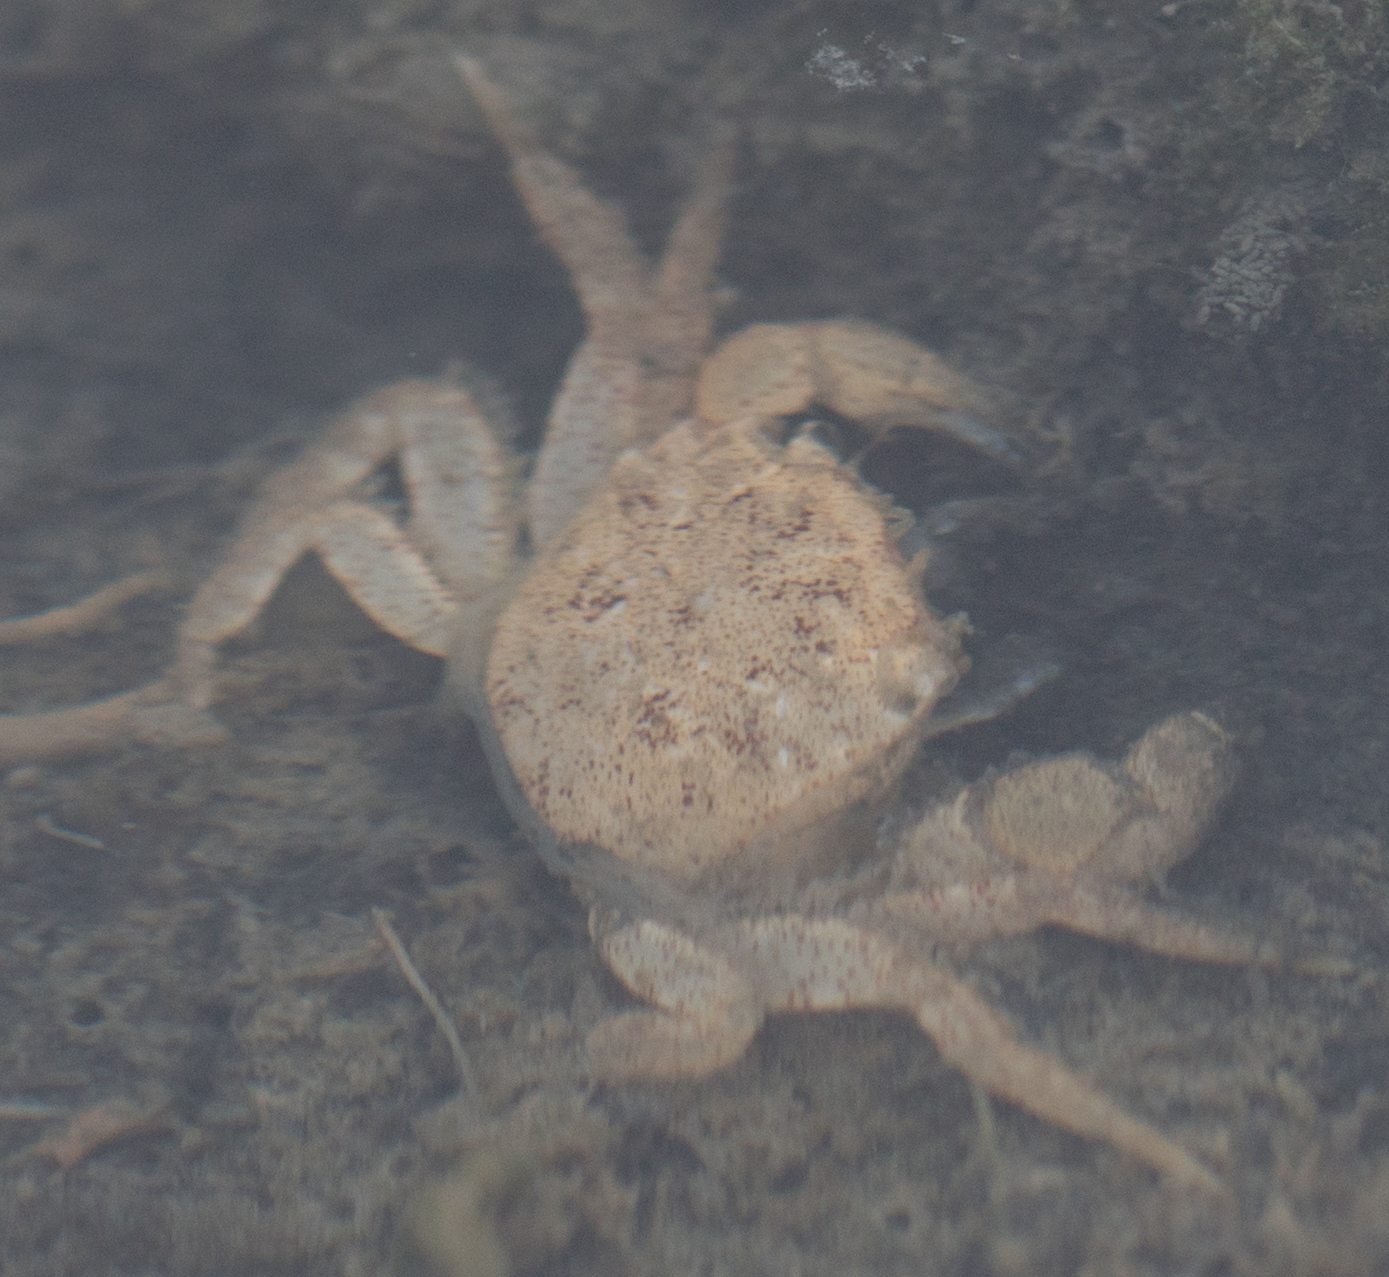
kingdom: Animalia
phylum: Arthropoda
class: Malacostraca
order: Decapoda
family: Varunidae
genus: Hemigrapsus
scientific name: Hemigrapsus oregonensis
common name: Yellow shore crab
